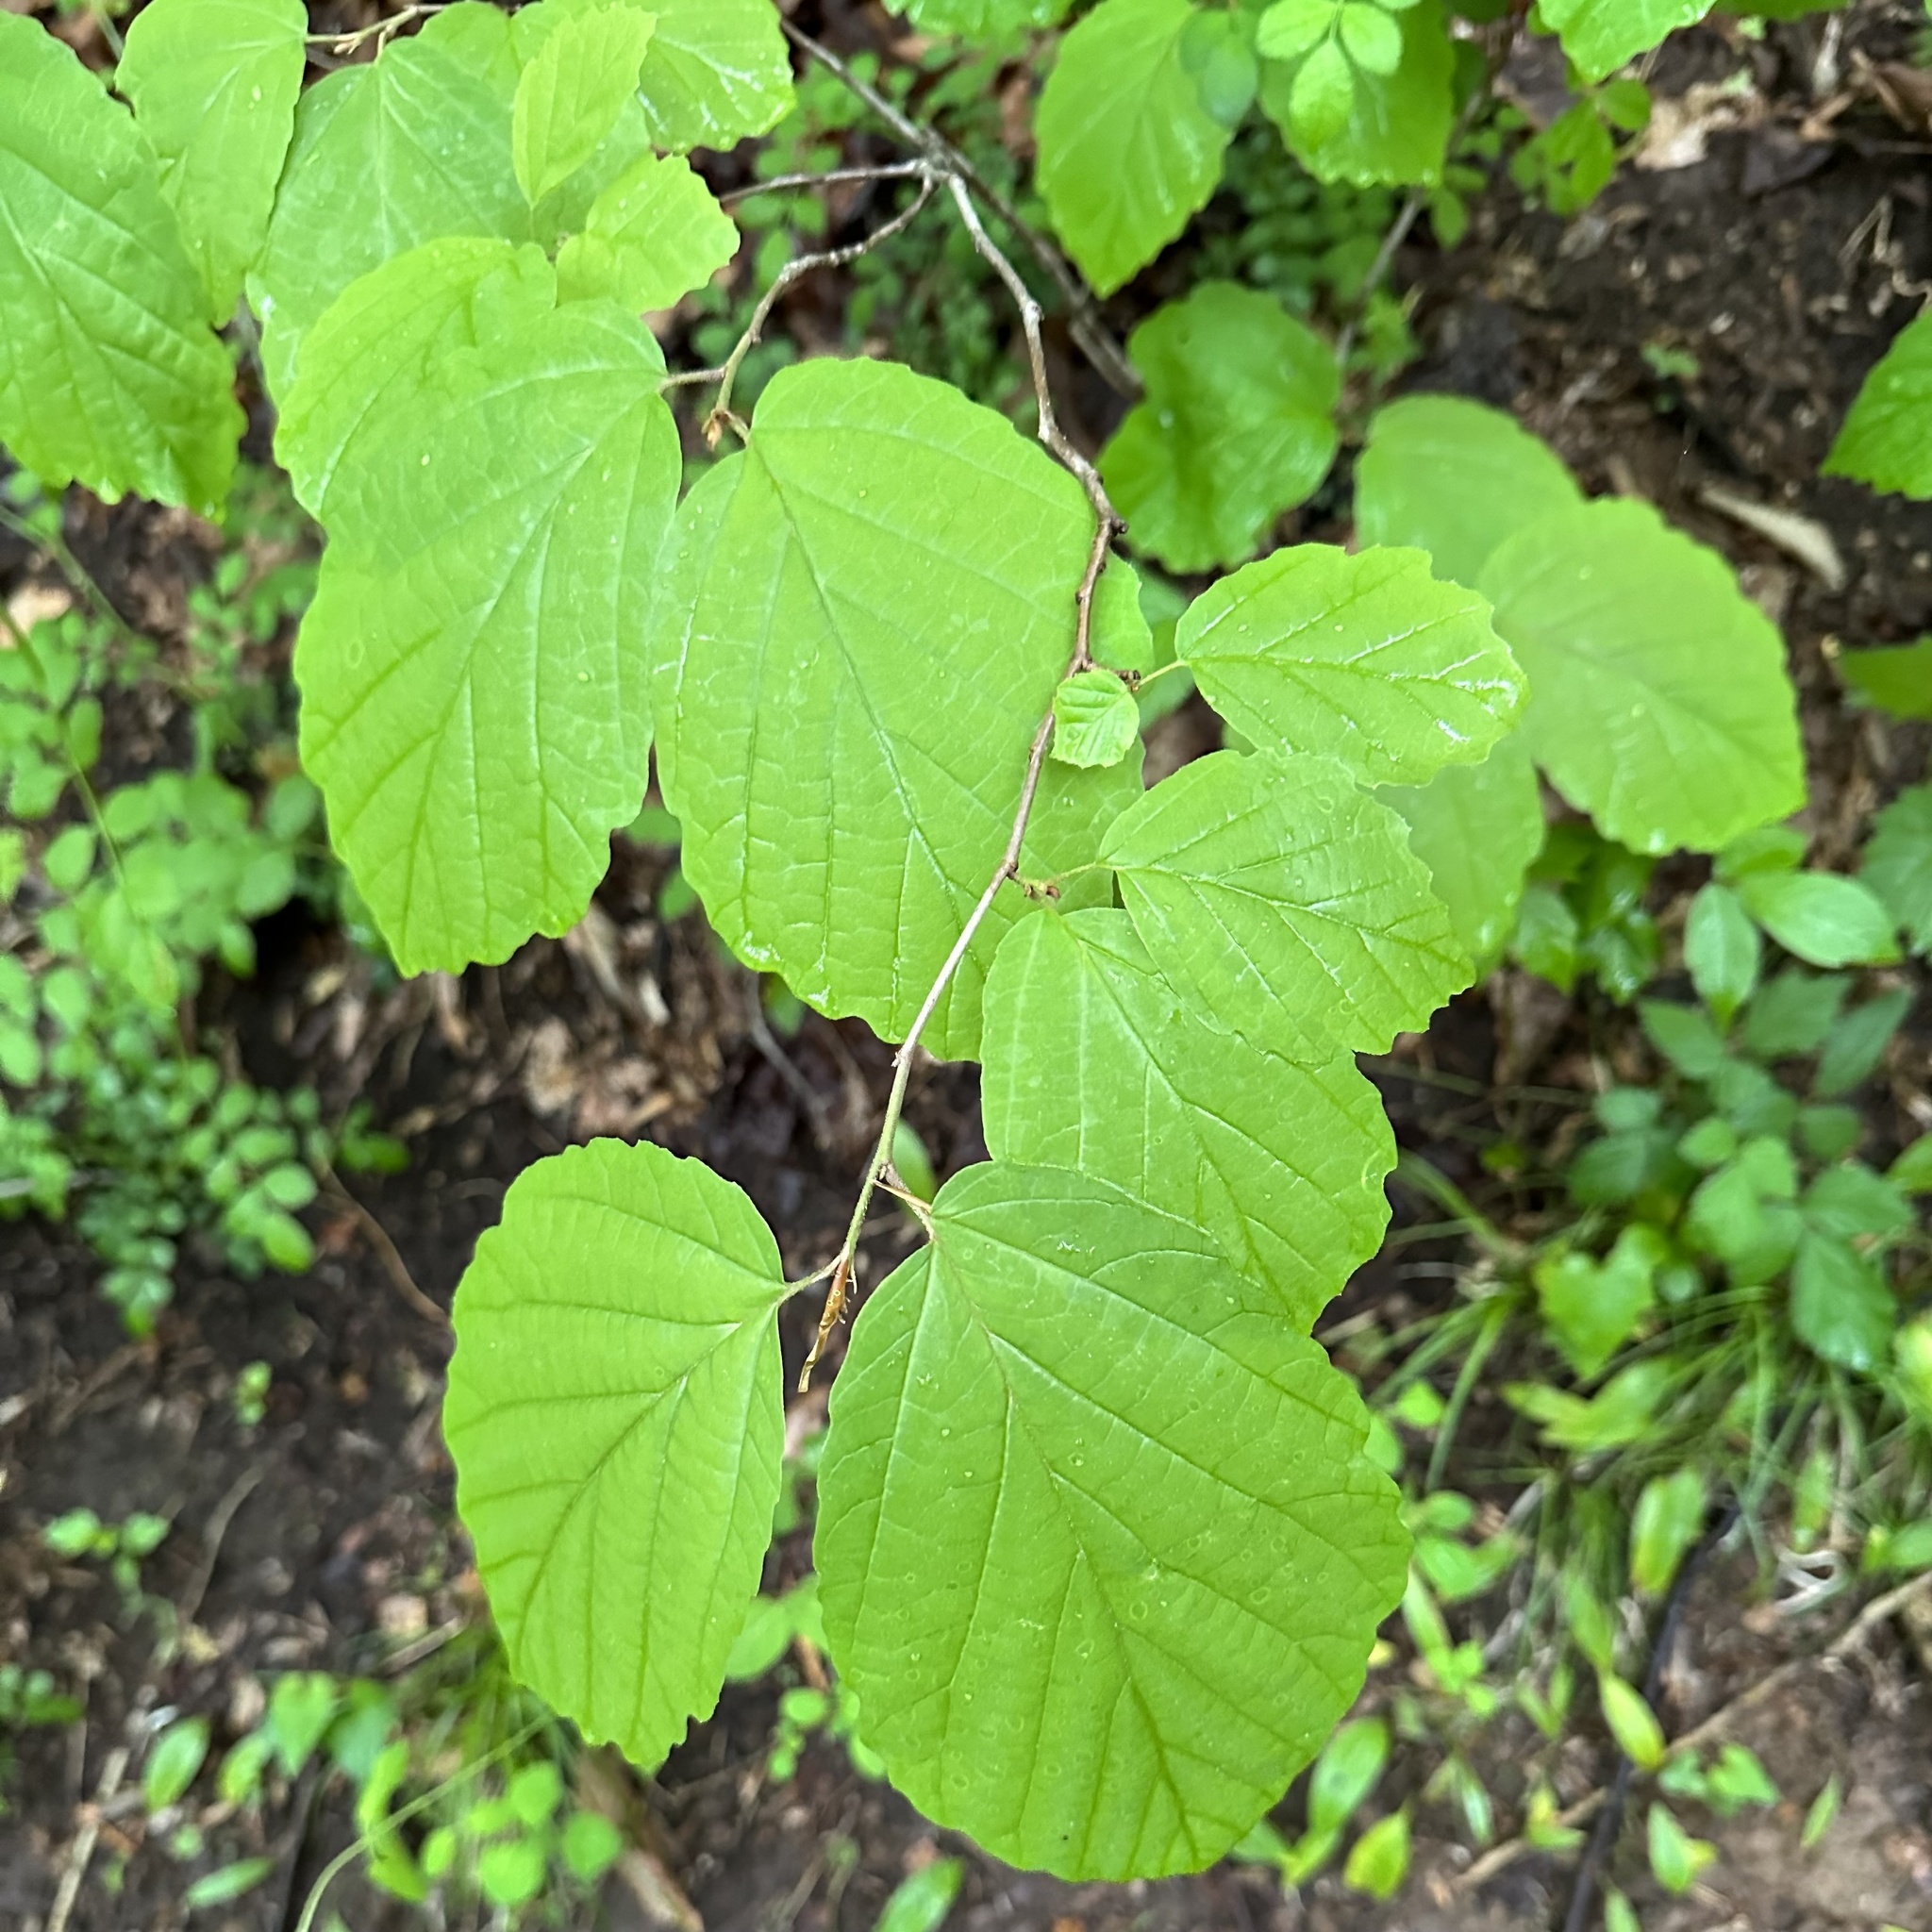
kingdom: Plantae
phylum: Tracheophyta
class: Magnoliopsida
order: Saxifragales
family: Hamamelidaceae
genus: Hamamelis
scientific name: Hamamelis virginiana
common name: Witch-hazel
